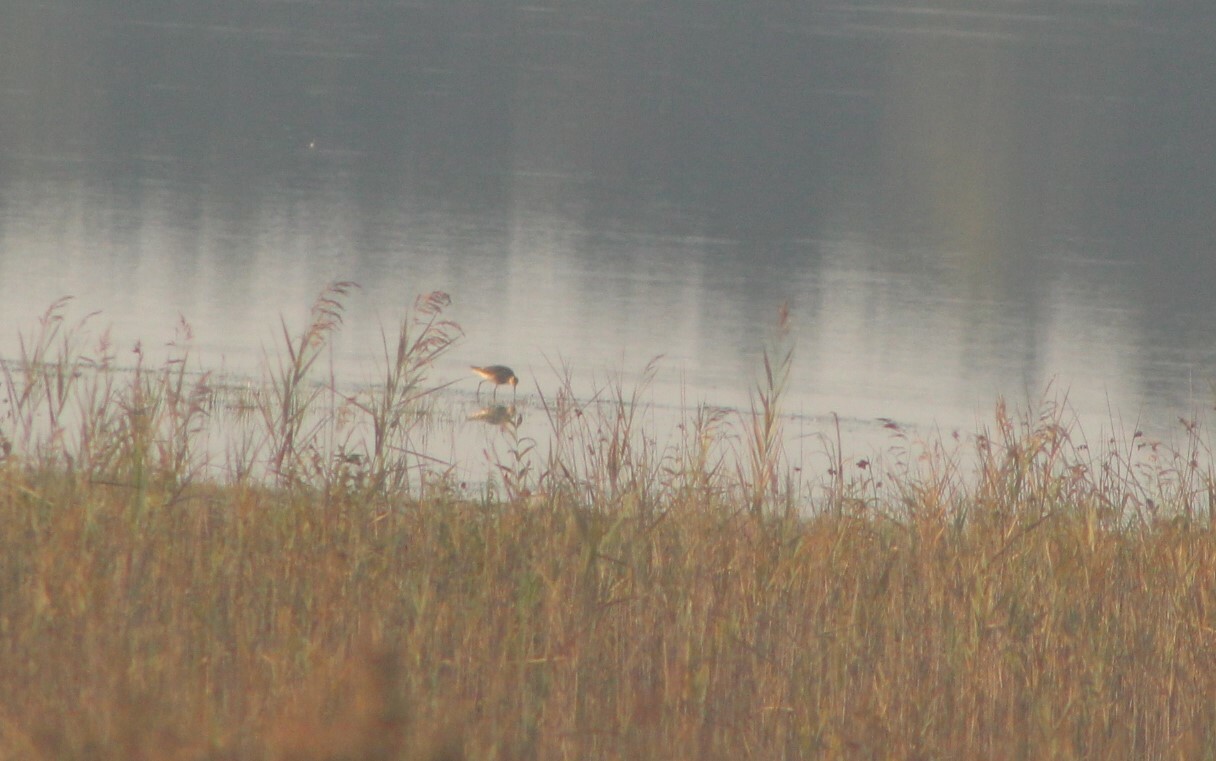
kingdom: Animalia
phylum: Chordata
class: Aves
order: Charadriiformes
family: Scolopacidae
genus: Calidris
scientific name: Calidris pugnax
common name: Ruff
